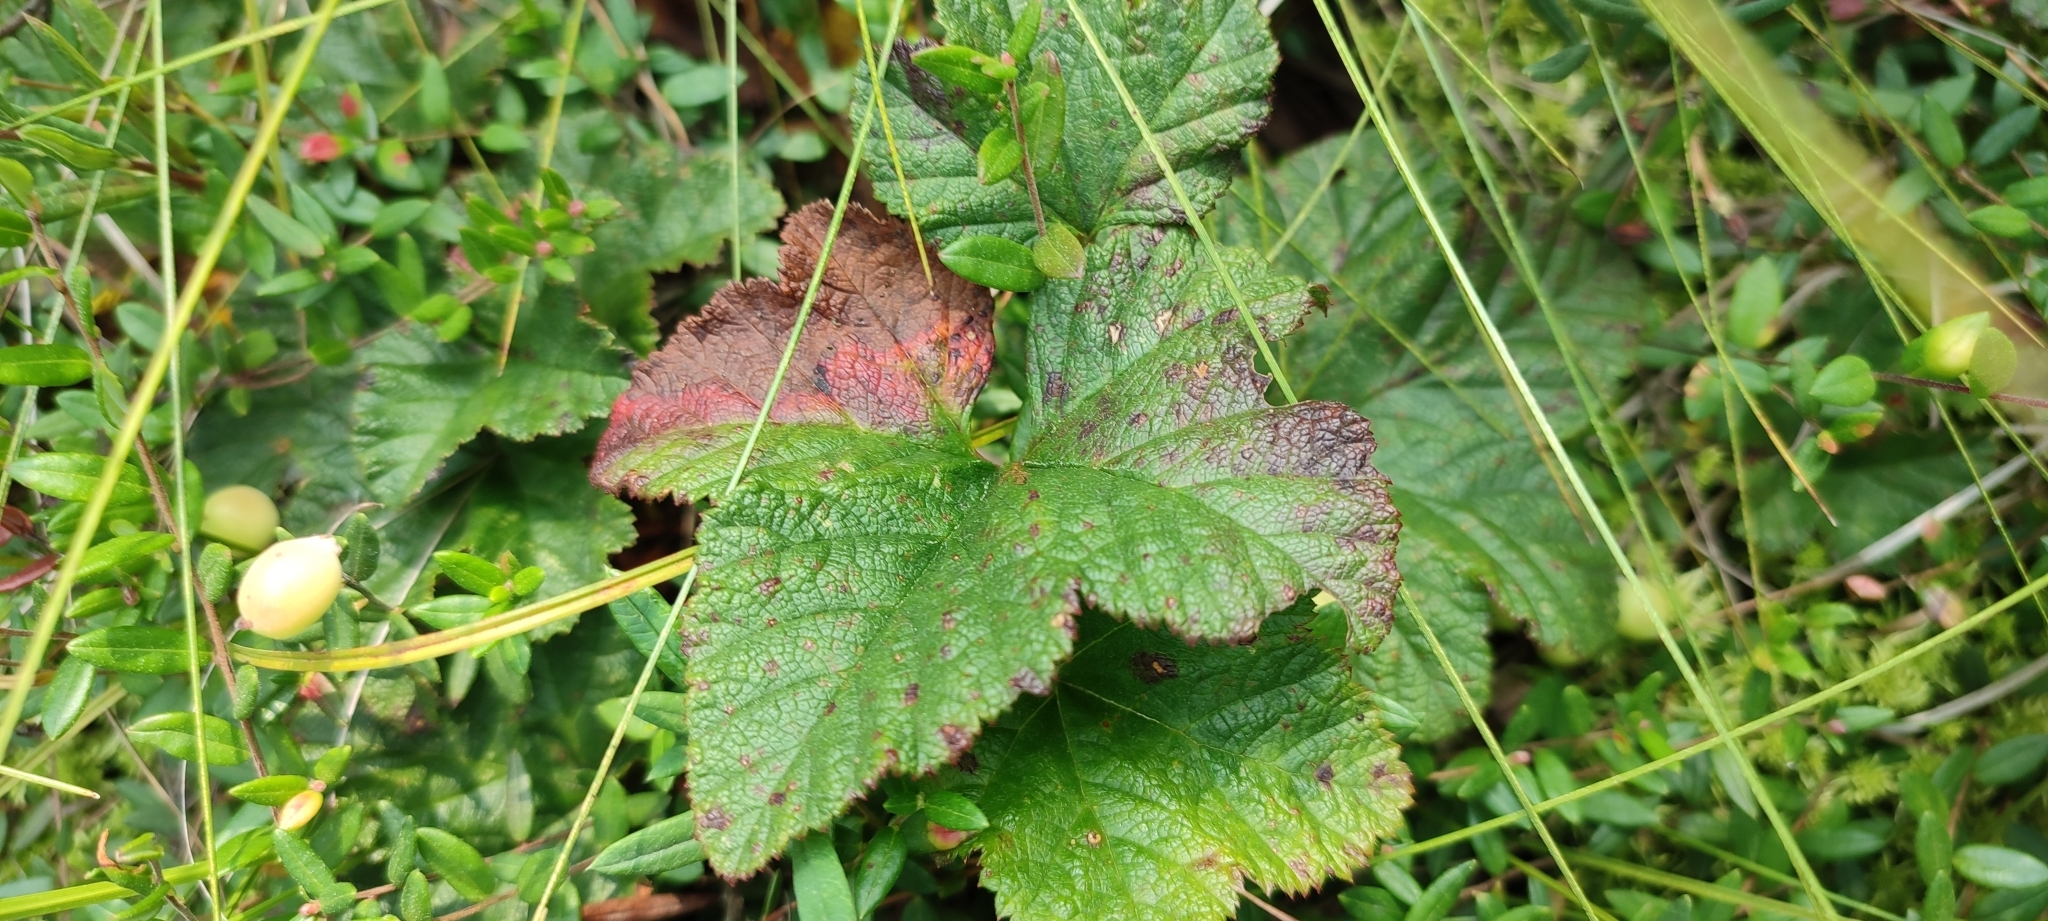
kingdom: Plantae
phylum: Tracheophyta
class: Magnoliopsida
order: Rosales
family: Rosaceae
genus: Rubus
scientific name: Rubus chamaemorus
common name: Cloudberry
